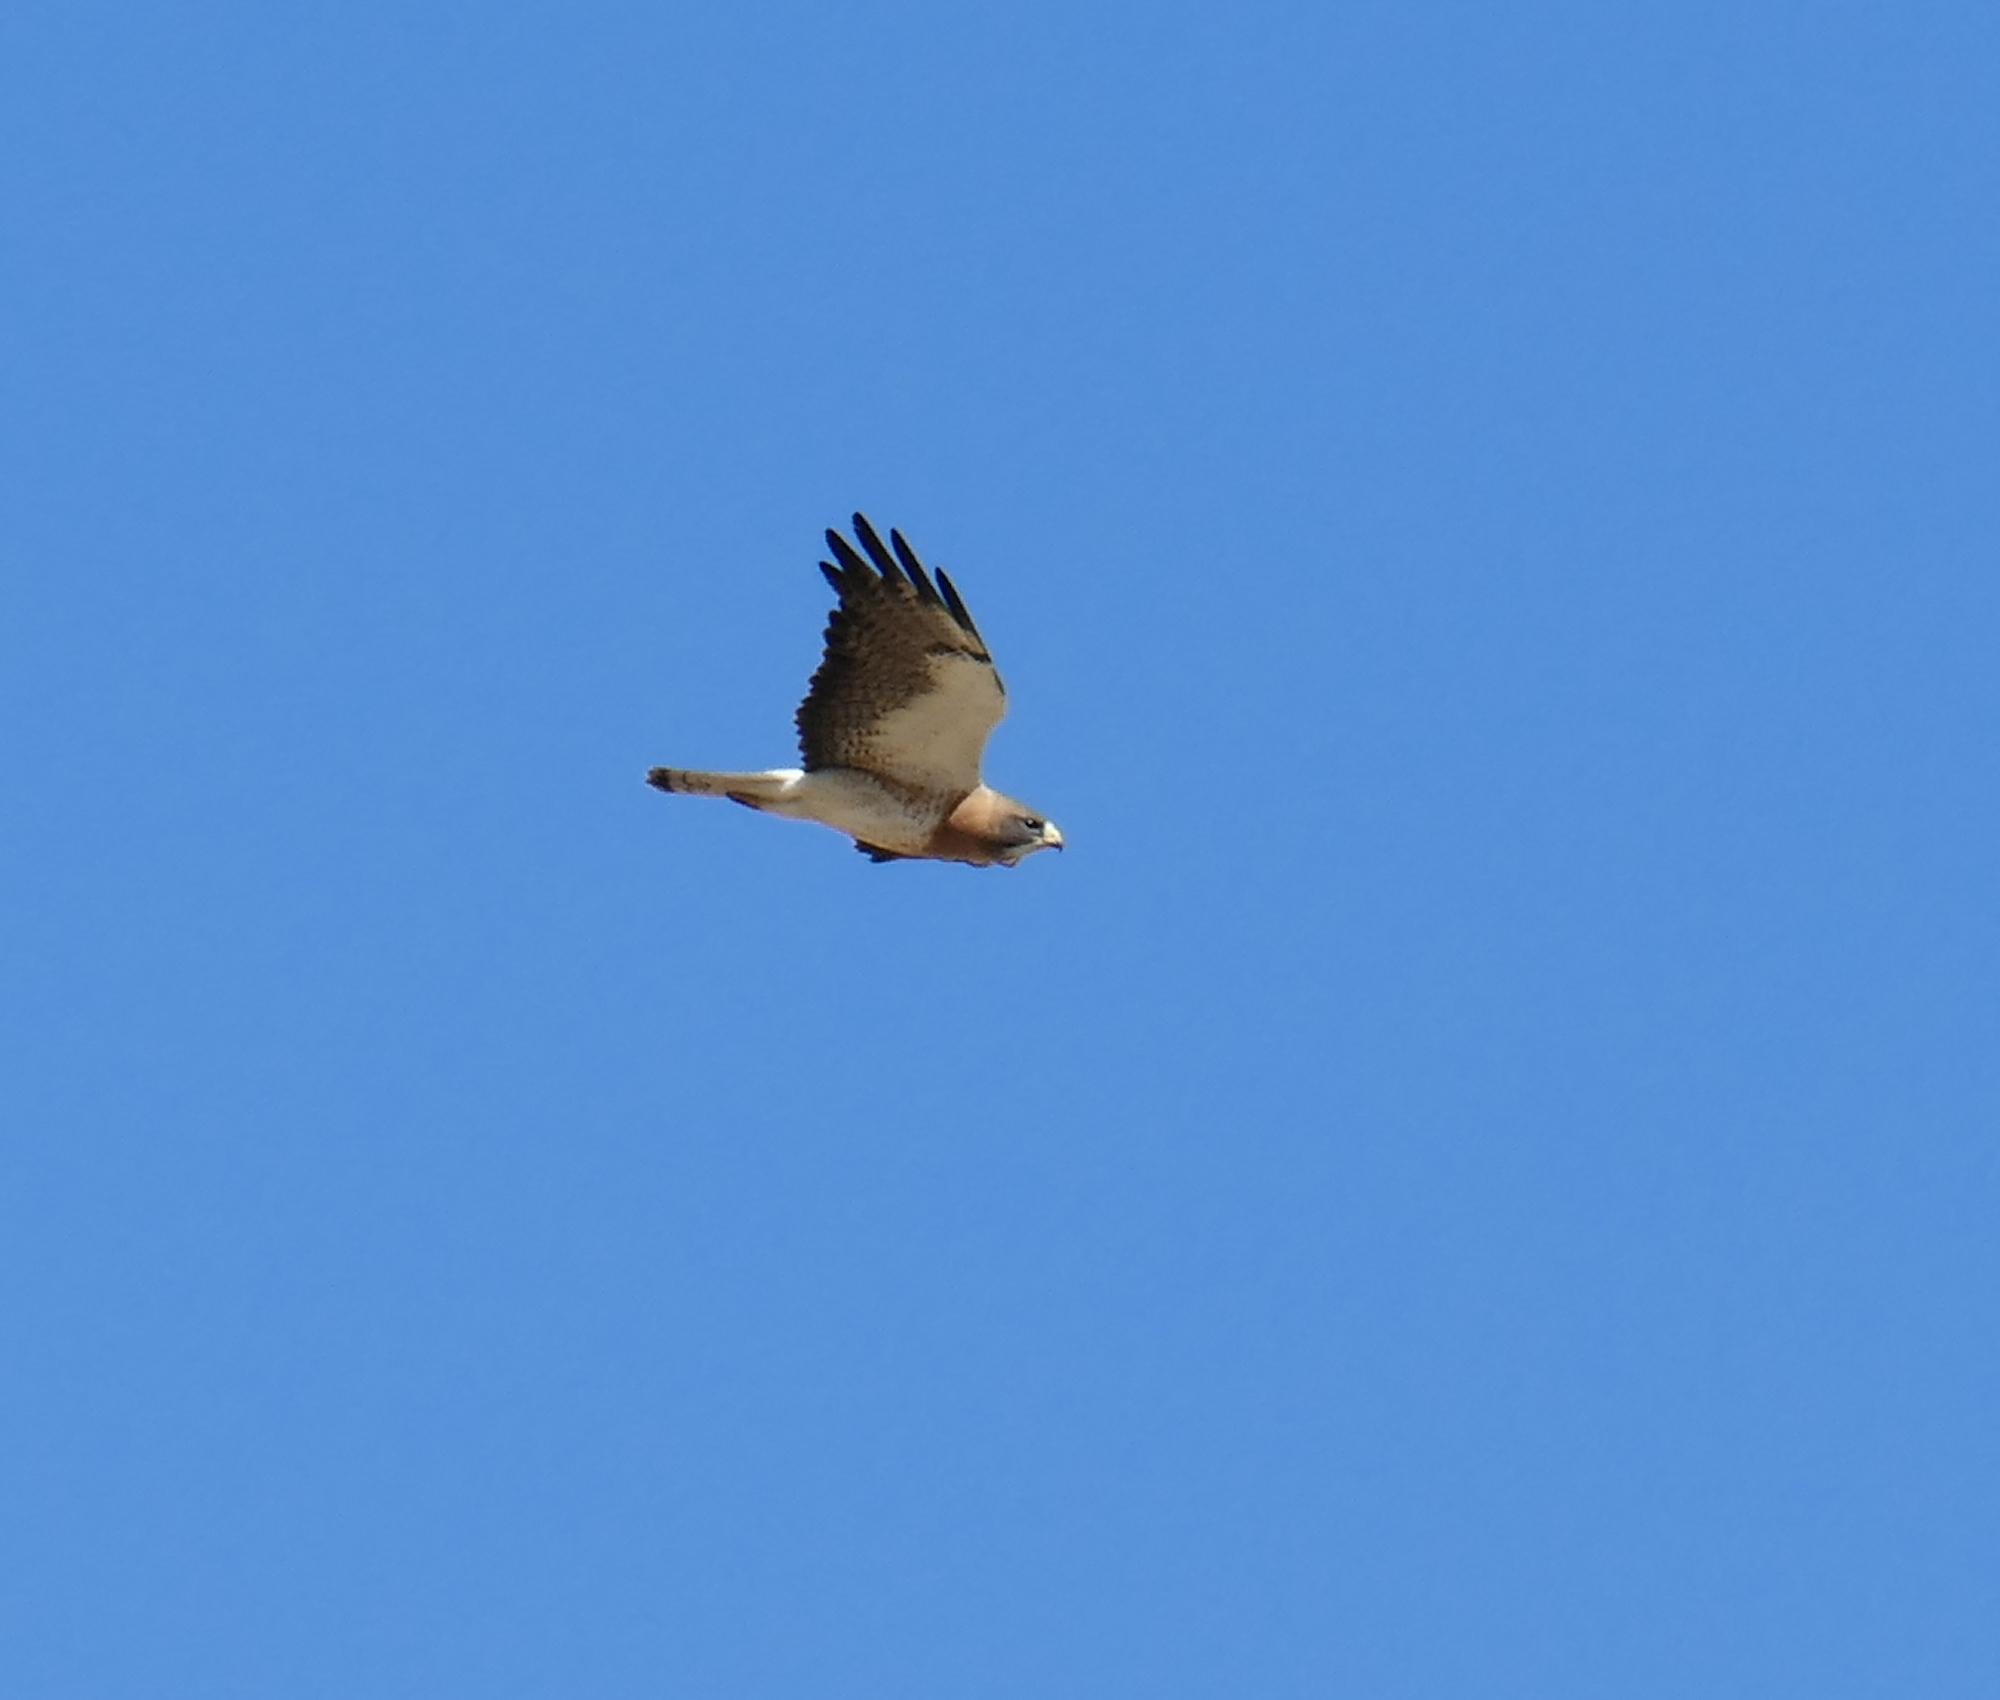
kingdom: Animalia
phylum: Chordata
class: Aves
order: Accipitriformes
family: Accipitridae
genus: Buteo
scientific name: Buteo swainsoni
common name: Swainson's hawk
